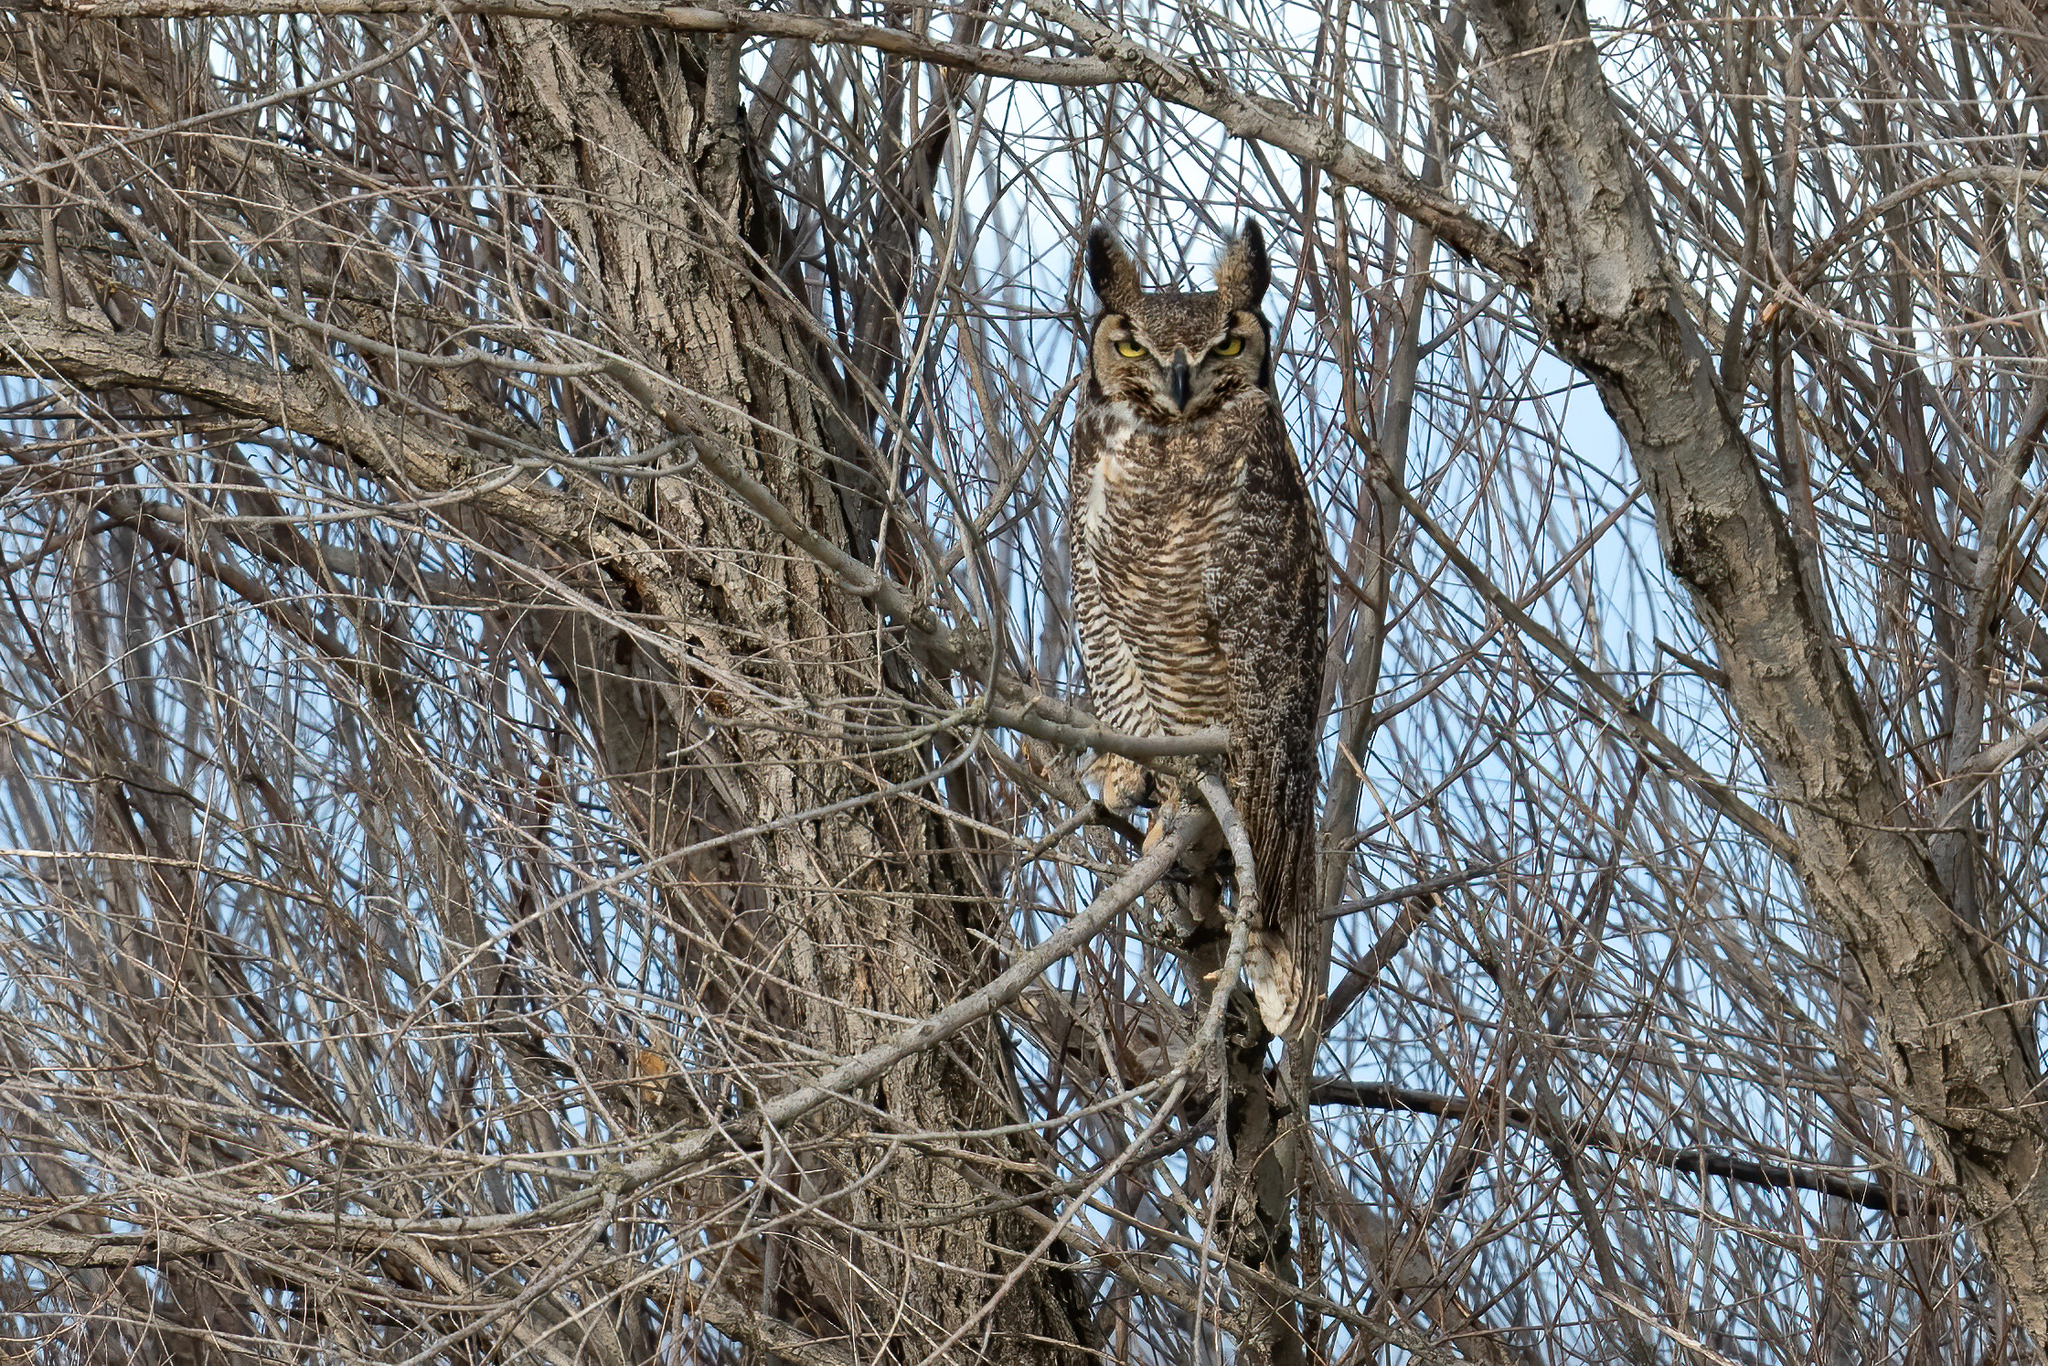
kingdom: Animalia
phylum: Chordata
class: Aves
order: Strigiformes
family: Strigidae
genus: Bubo
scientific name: Bubo virginianus
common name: Great horned owl
